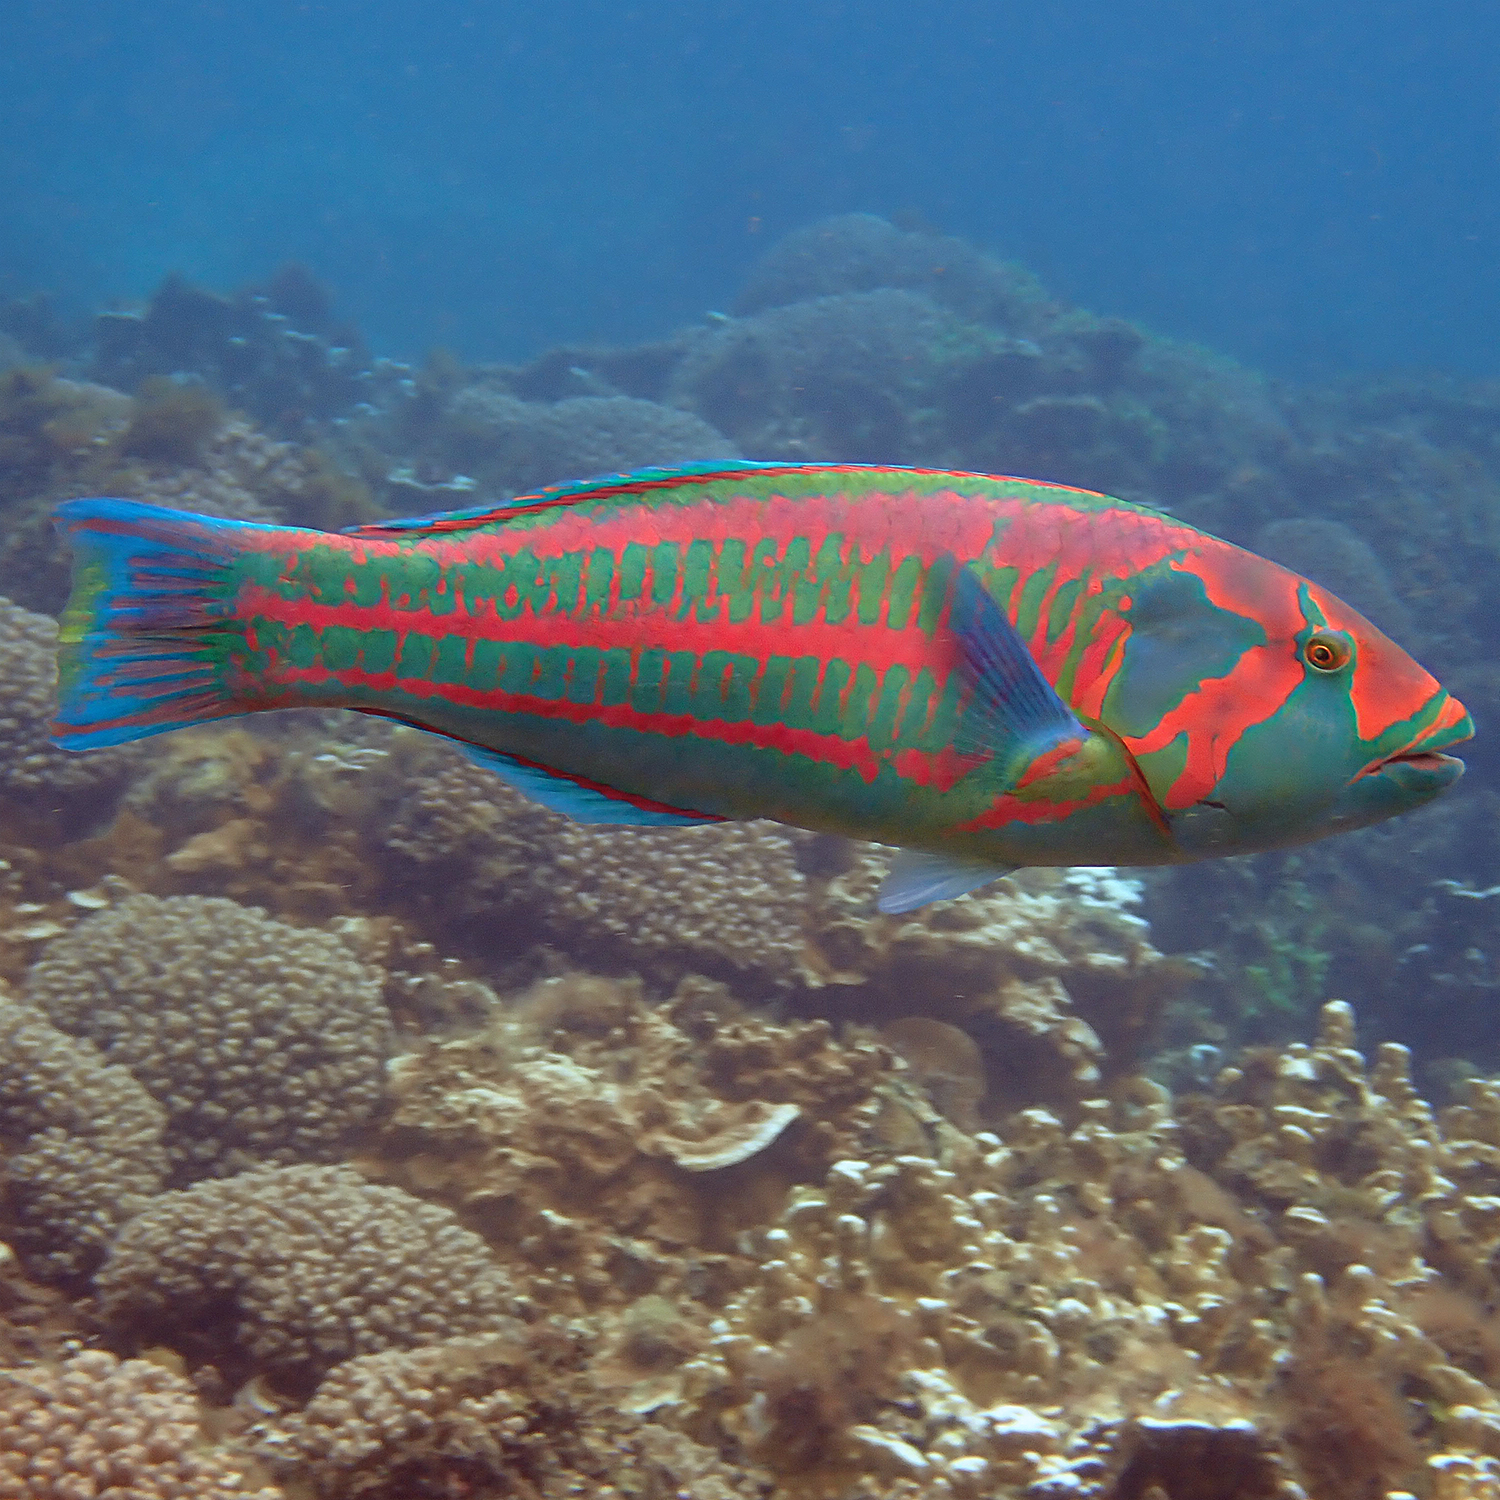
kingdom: Animalia
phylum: Chordata
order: Perciformes
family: Labridae
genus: Thalassoma
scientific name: Thalassoma purpureum
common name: Parrotfish
